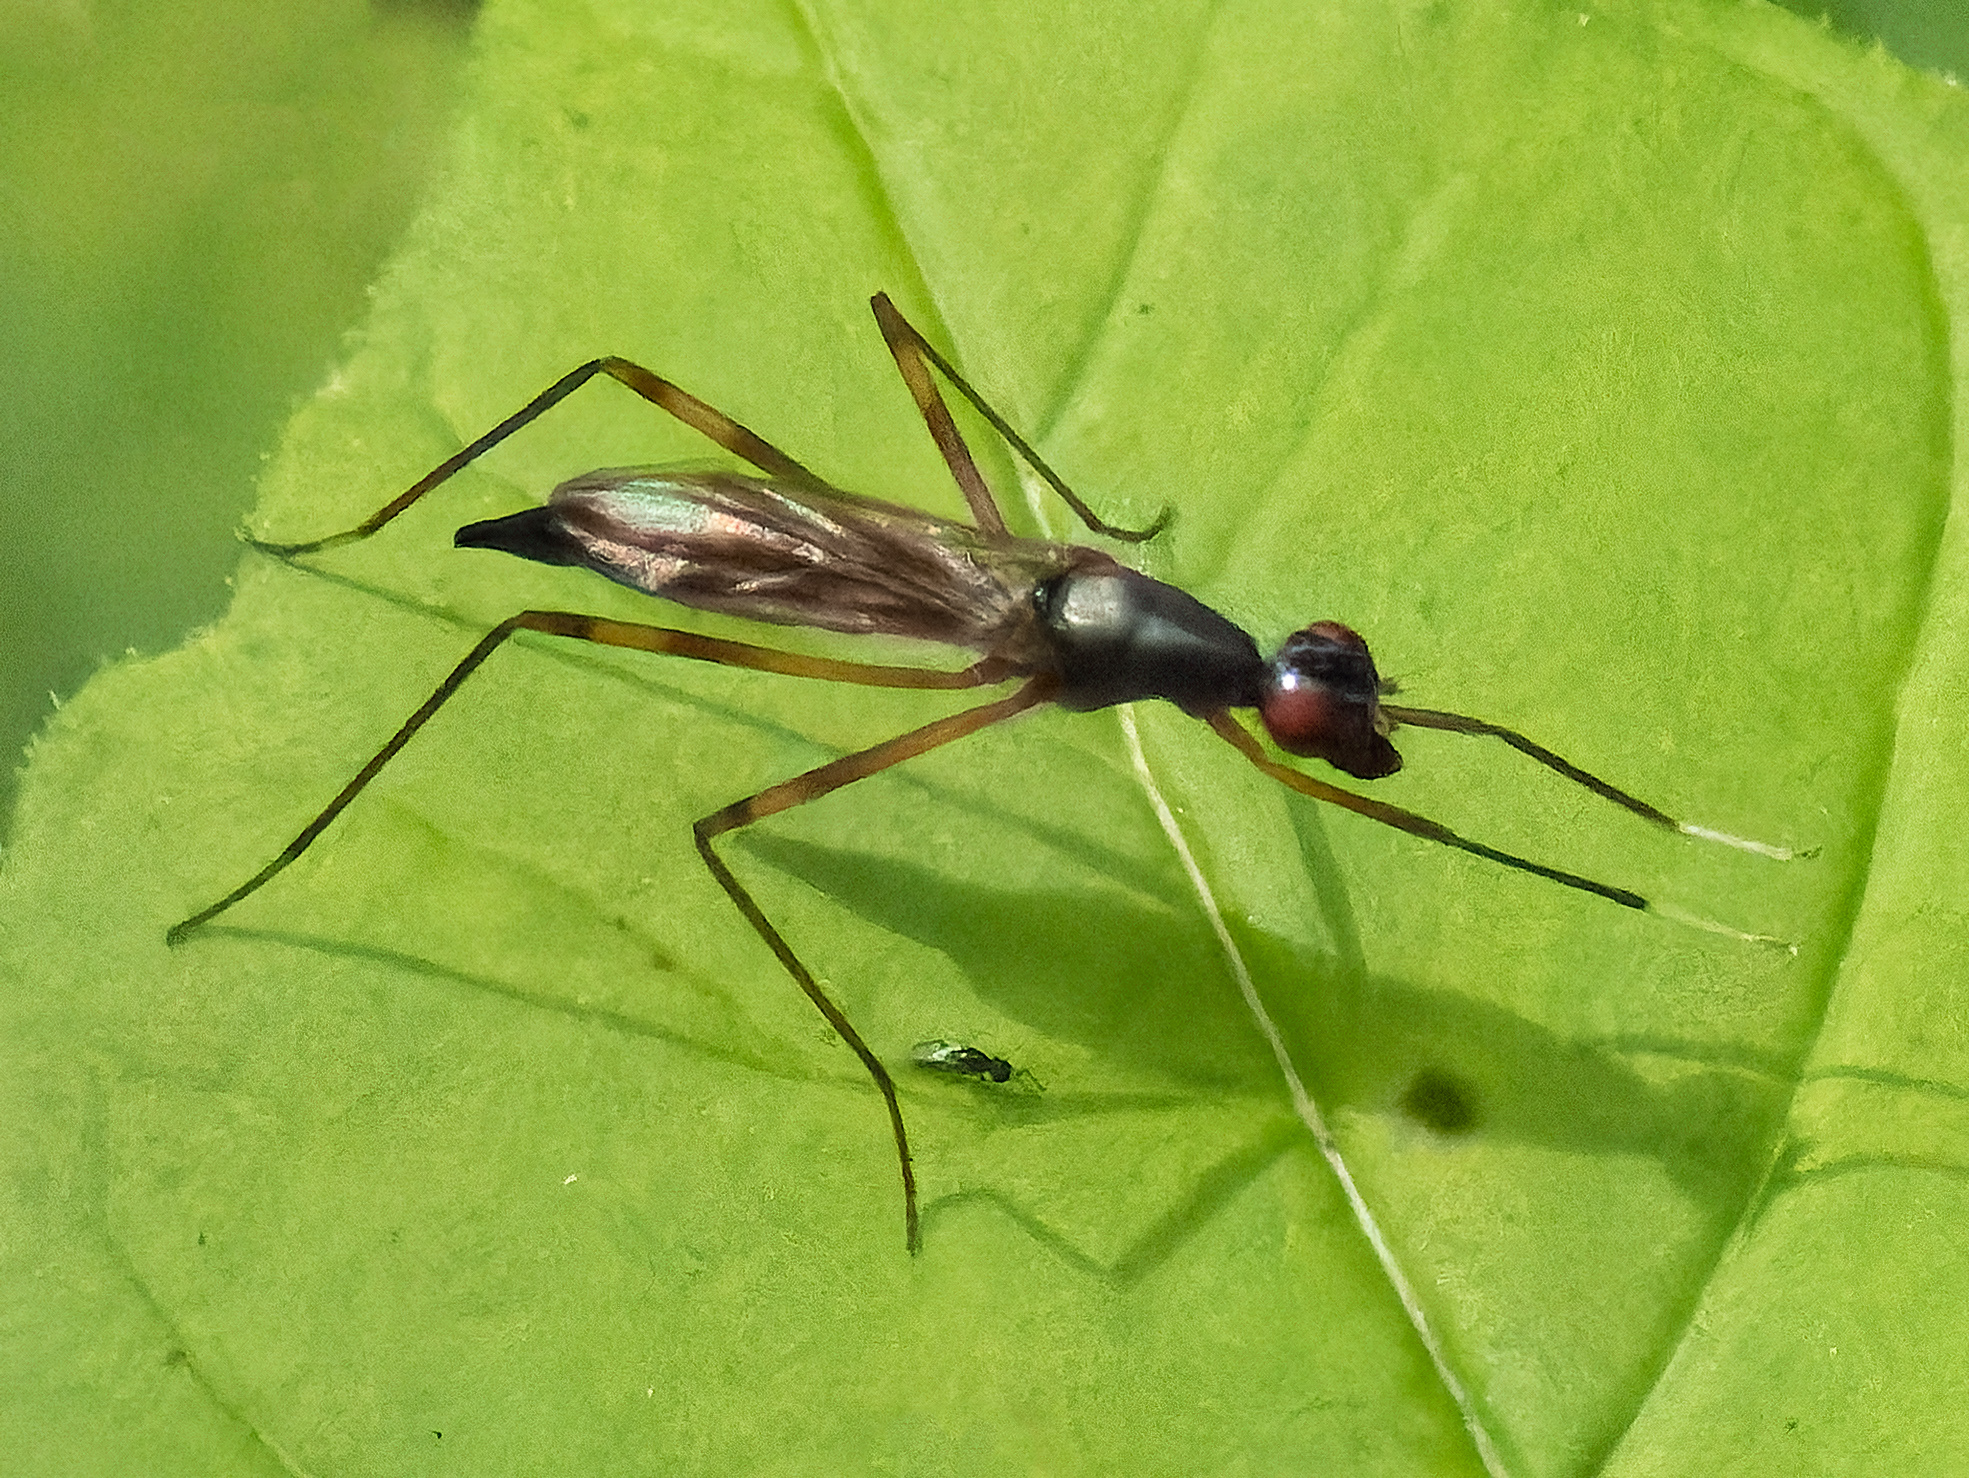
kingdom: Animalia
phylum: Arthropoda
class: Insecta
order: Diptera
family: Micropezidae
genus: Rainieria
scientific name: Rainieria antennaepes
